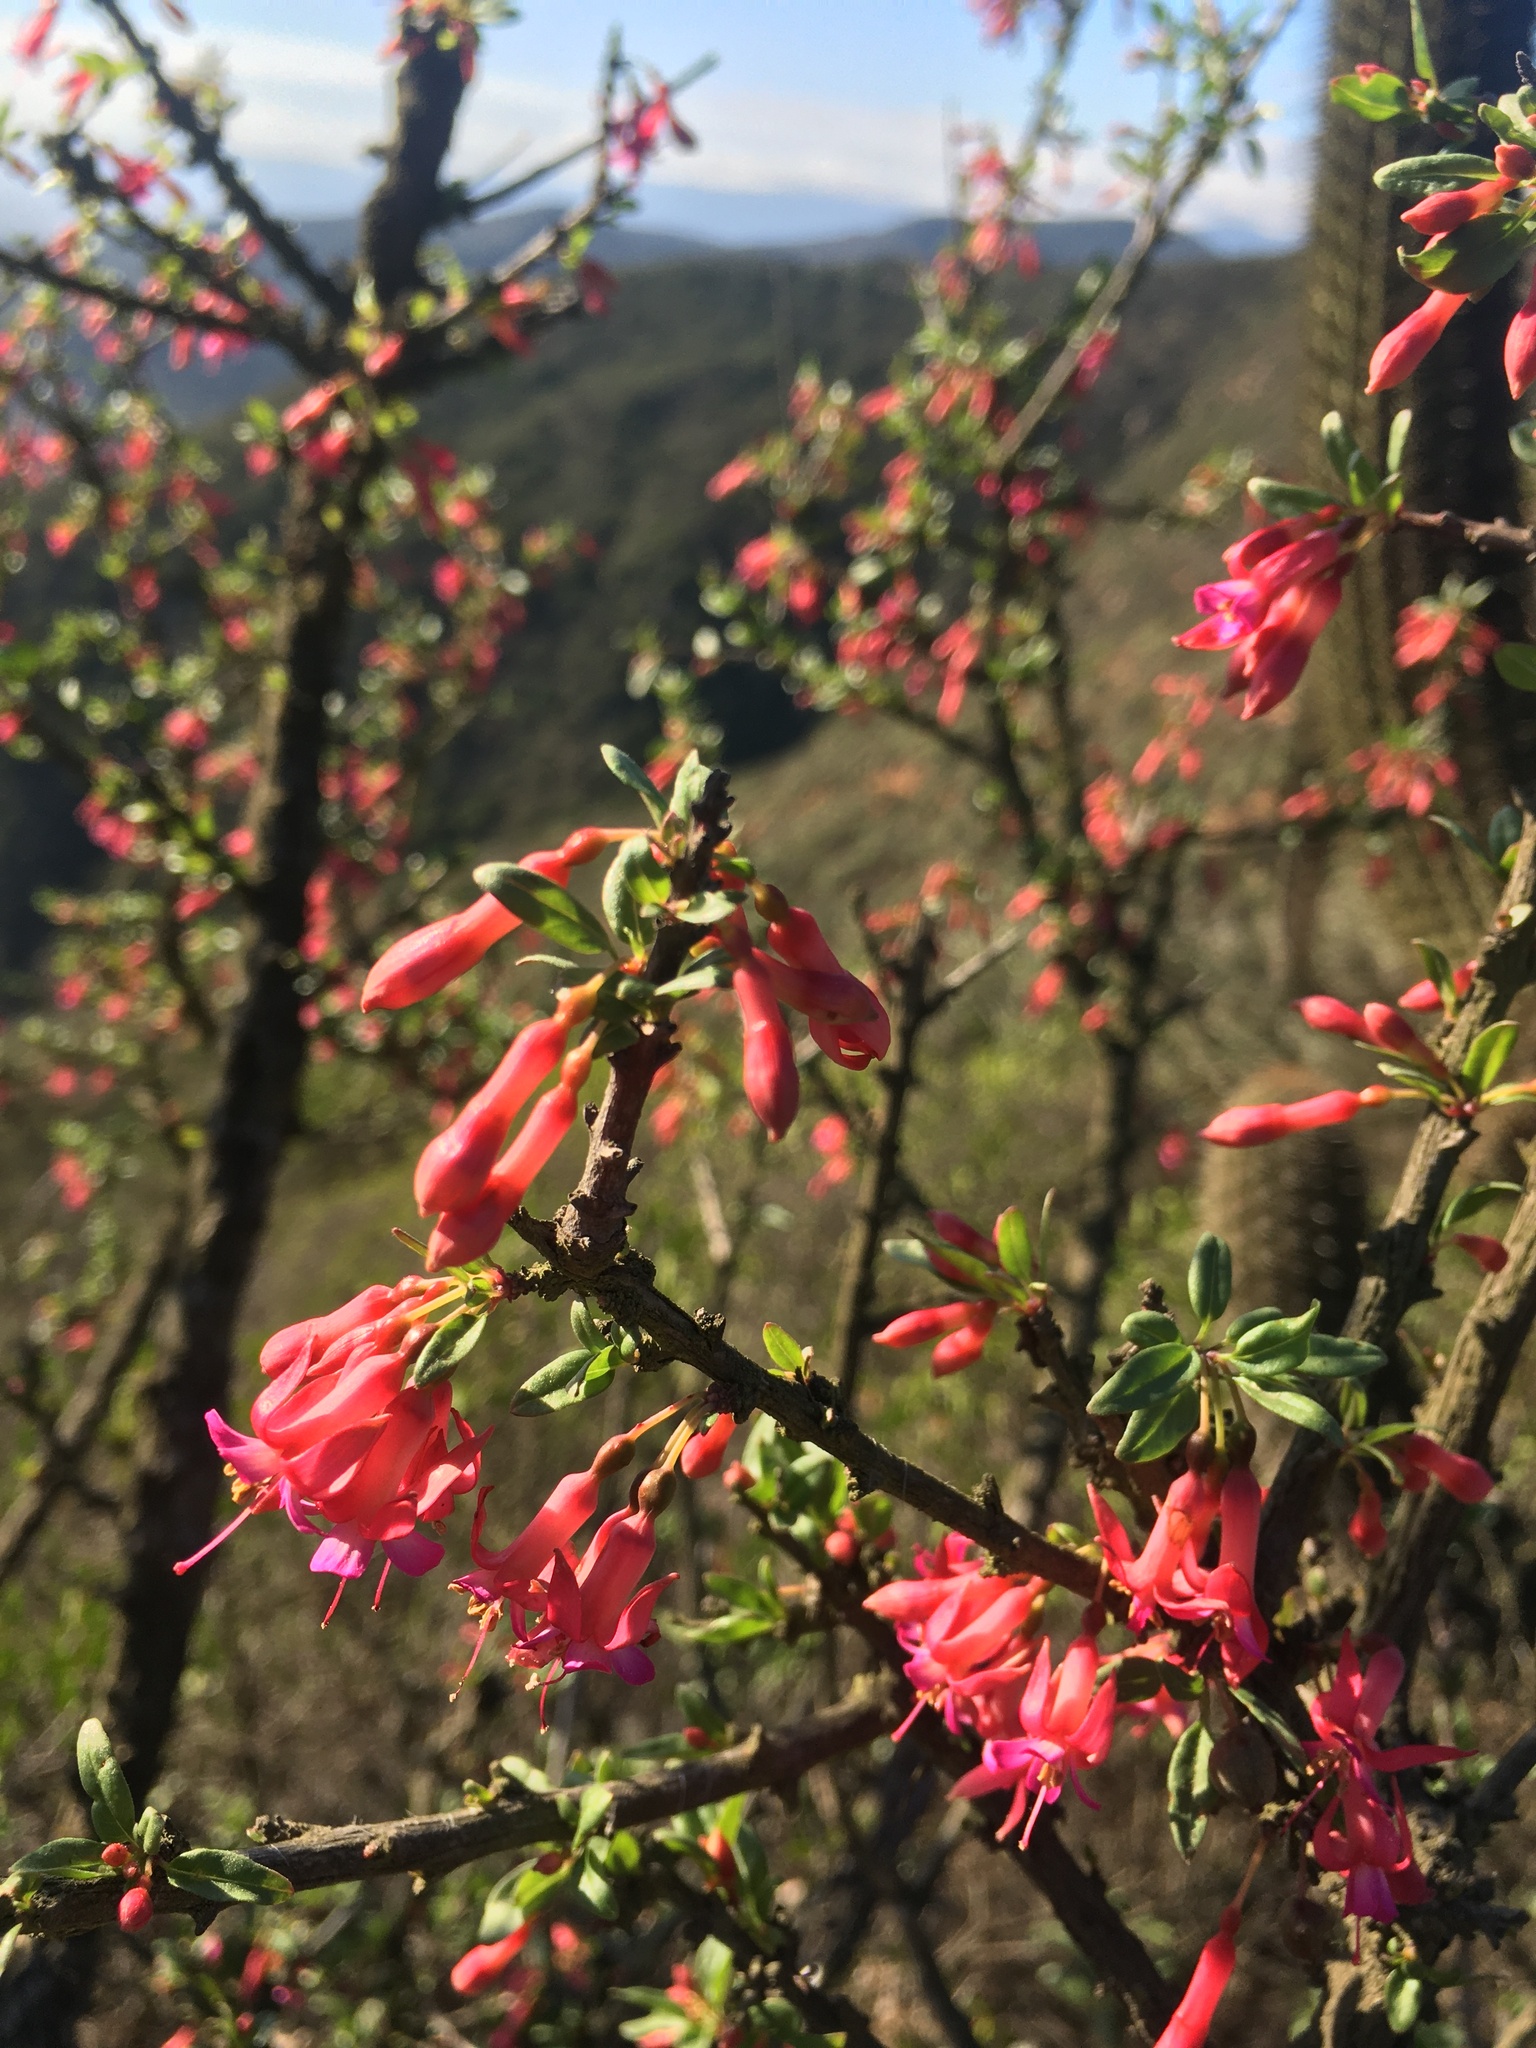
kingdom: Plantae
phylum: Tracheophyta
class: Magnoliopsida
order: Myrtales
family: Onagraceae
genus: Fuchsia
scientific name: Fuchsia lycioides
